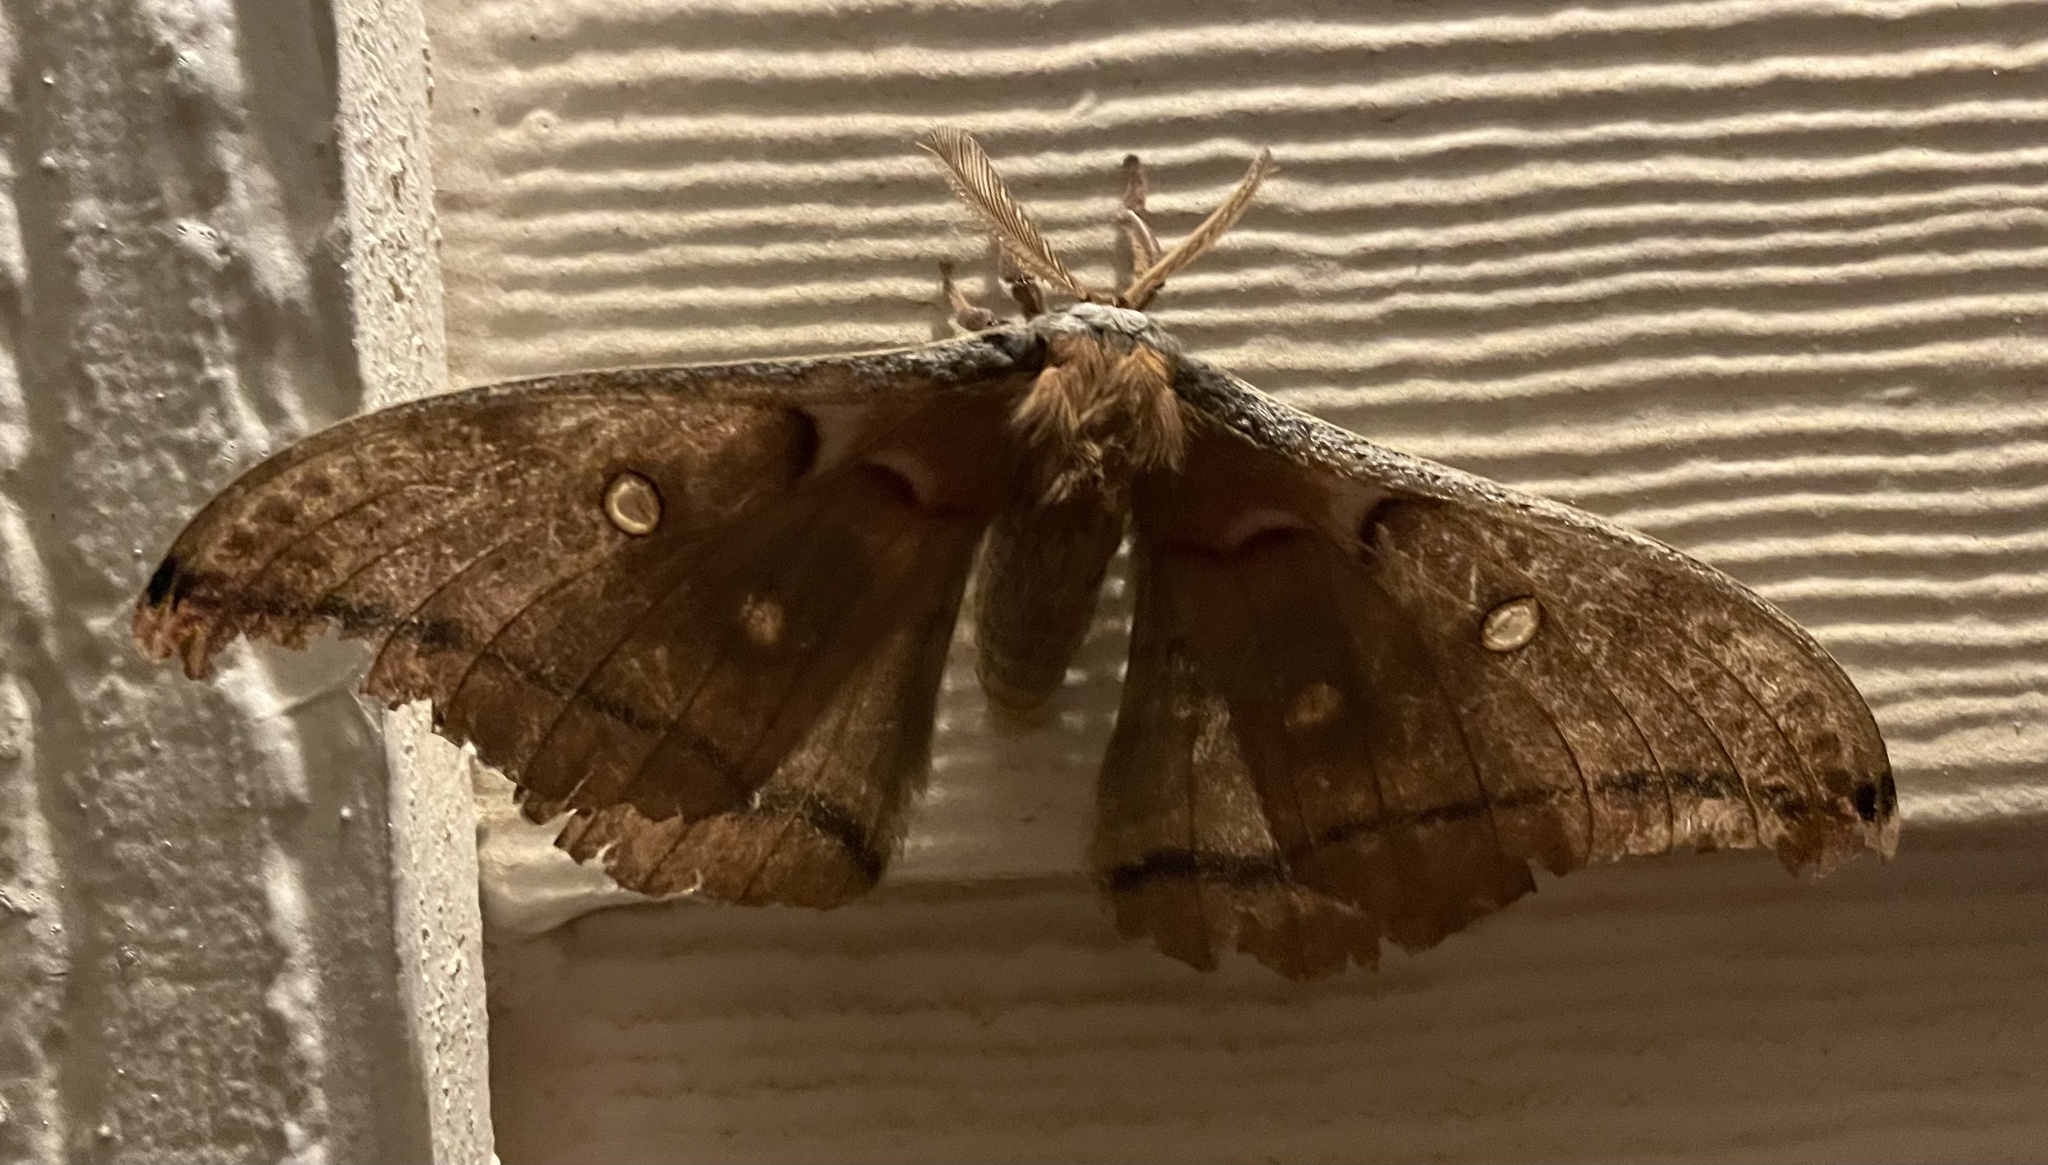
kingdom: Animalia
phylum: Arthropoda
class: Insecta
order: Lepidoptera
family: Saturniidae
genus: Antheraea
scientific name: Antheraea polyphemus
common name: Polyphemus moth
